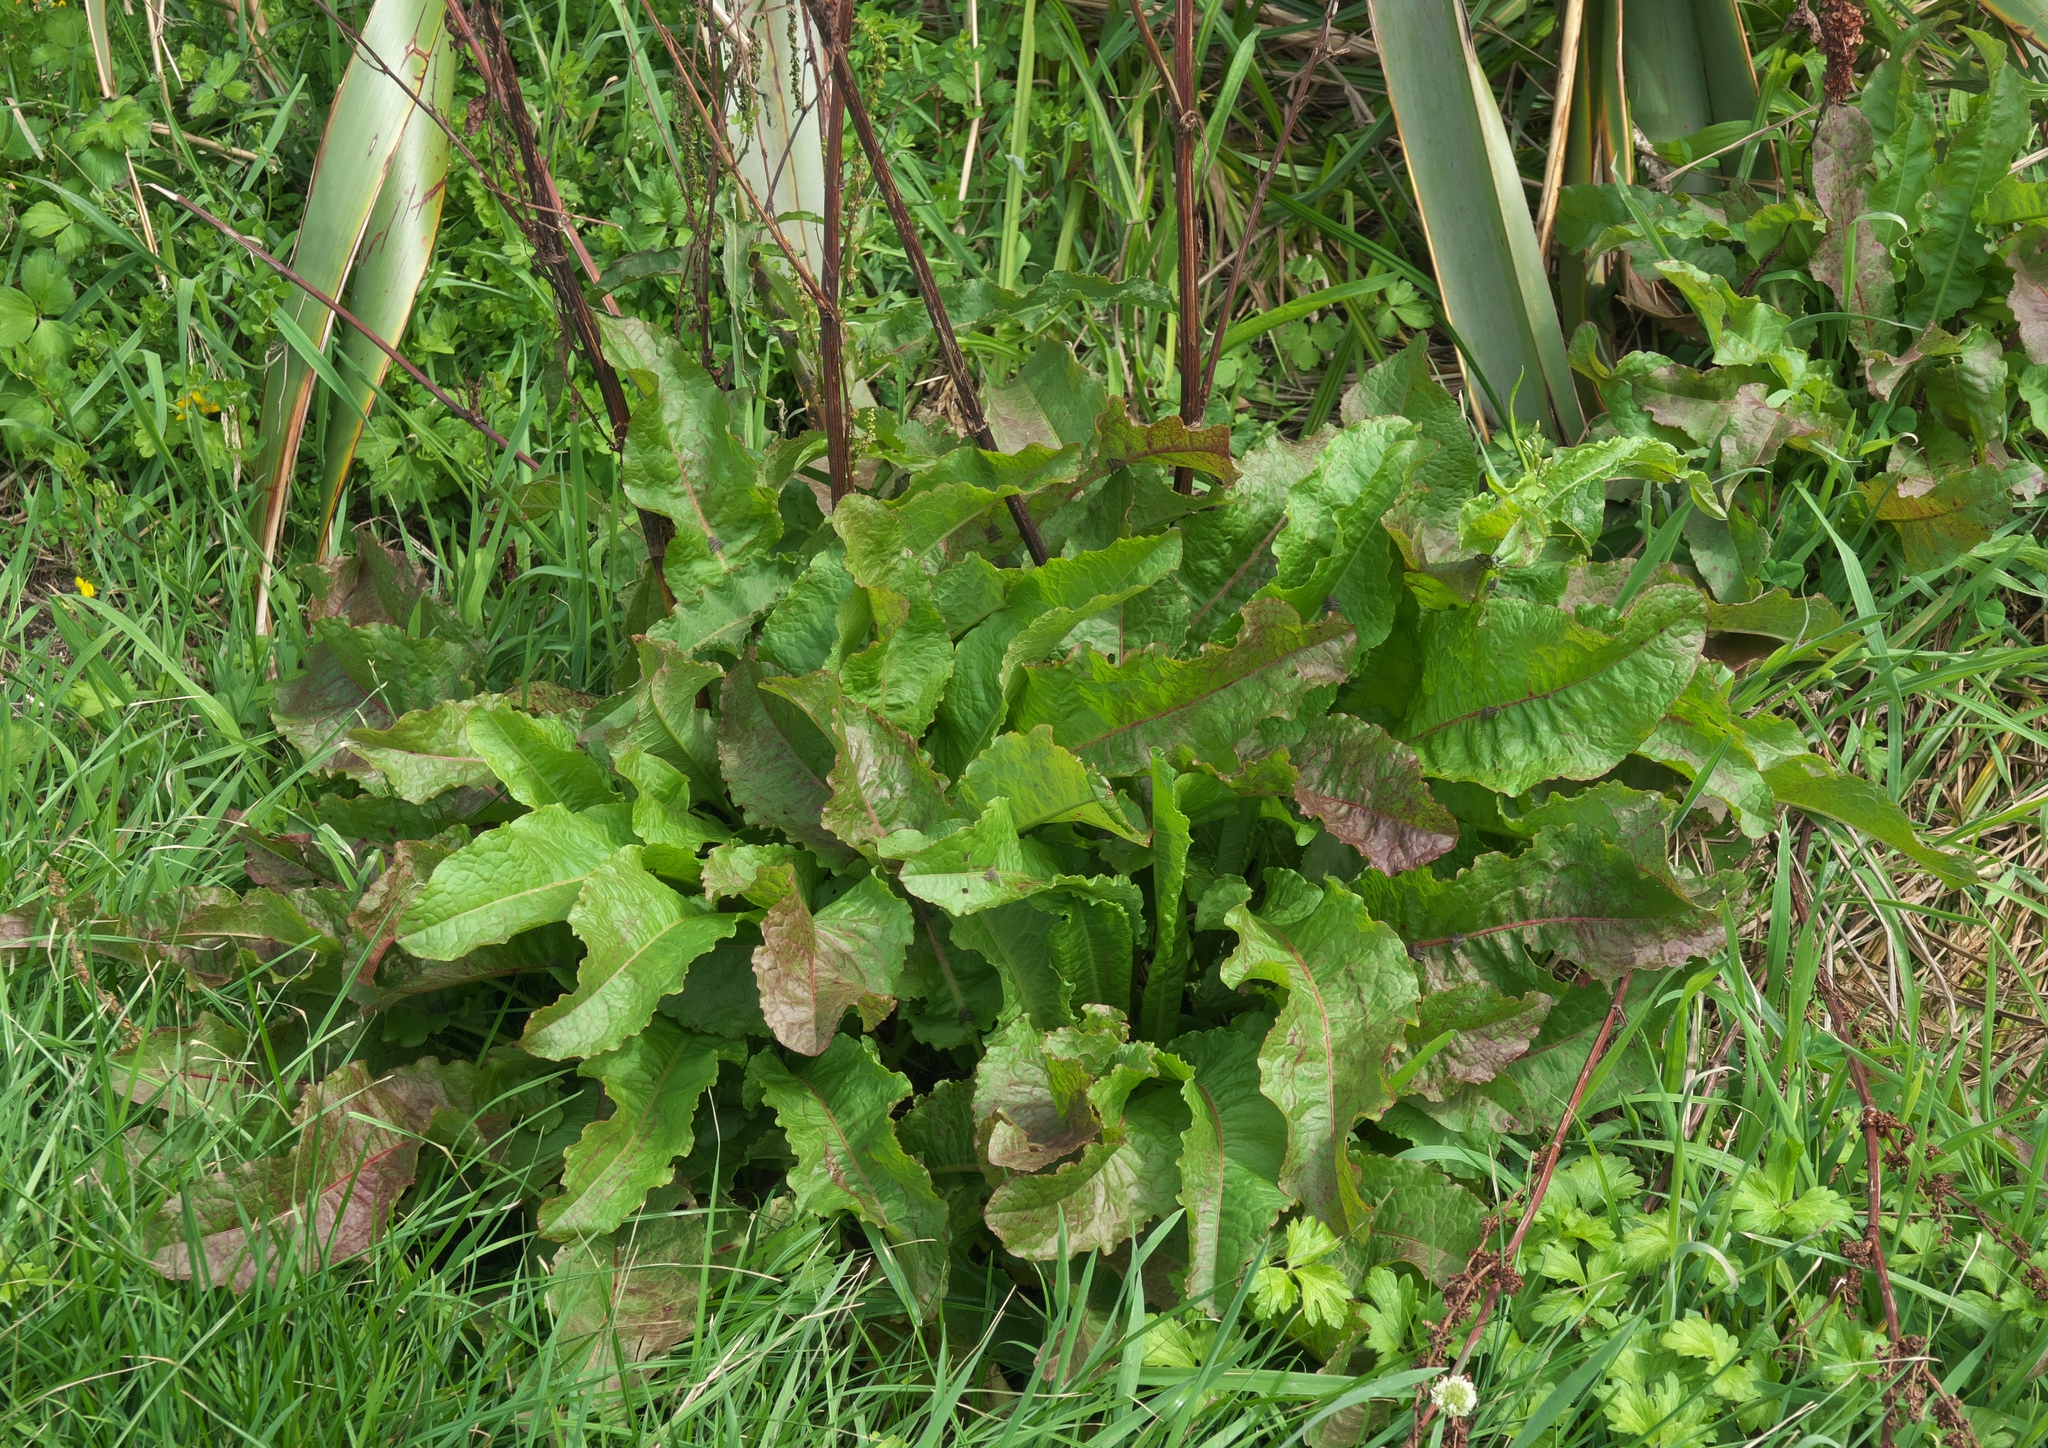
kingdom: Plantae
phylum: Tracheophyta
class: Magnoliopsida
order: Caryophyllales
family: Polygonaceae
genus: Rumex
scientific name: Rumex obtusifolius
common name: Bitter dock
